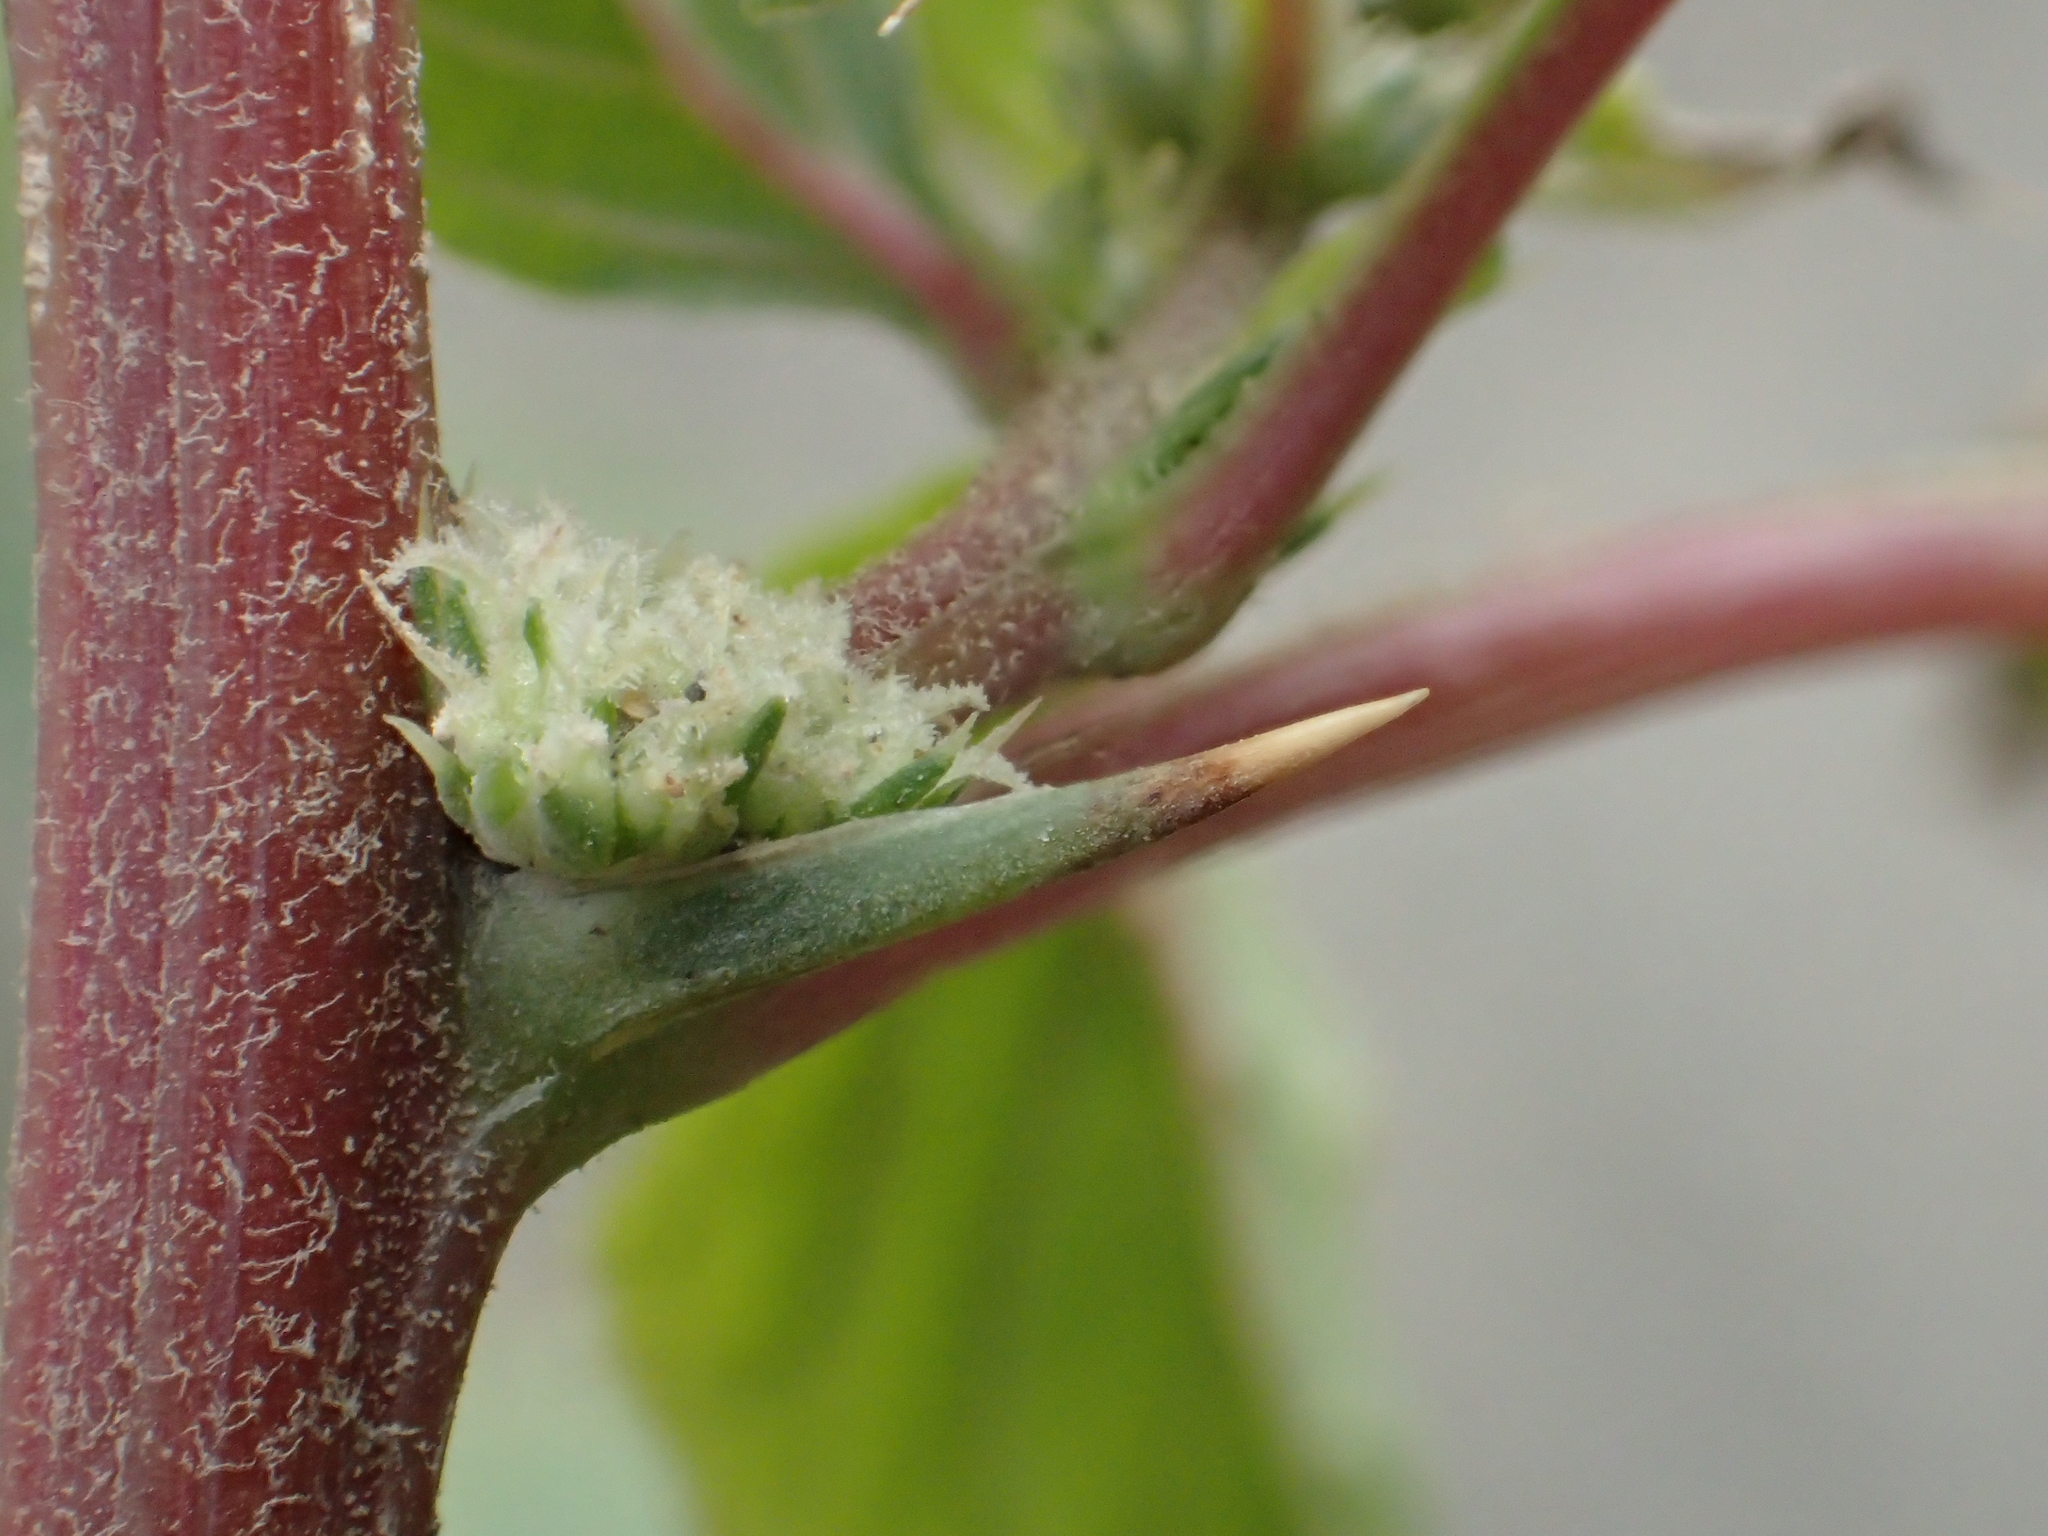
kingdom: Plantae
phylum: Tracheophyta
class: Magnoliopsida
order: Caryophyllales
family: Amaranthaceae
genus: Amaranthus
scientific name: Amaranthus spinosus
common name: Spiny amaranth
